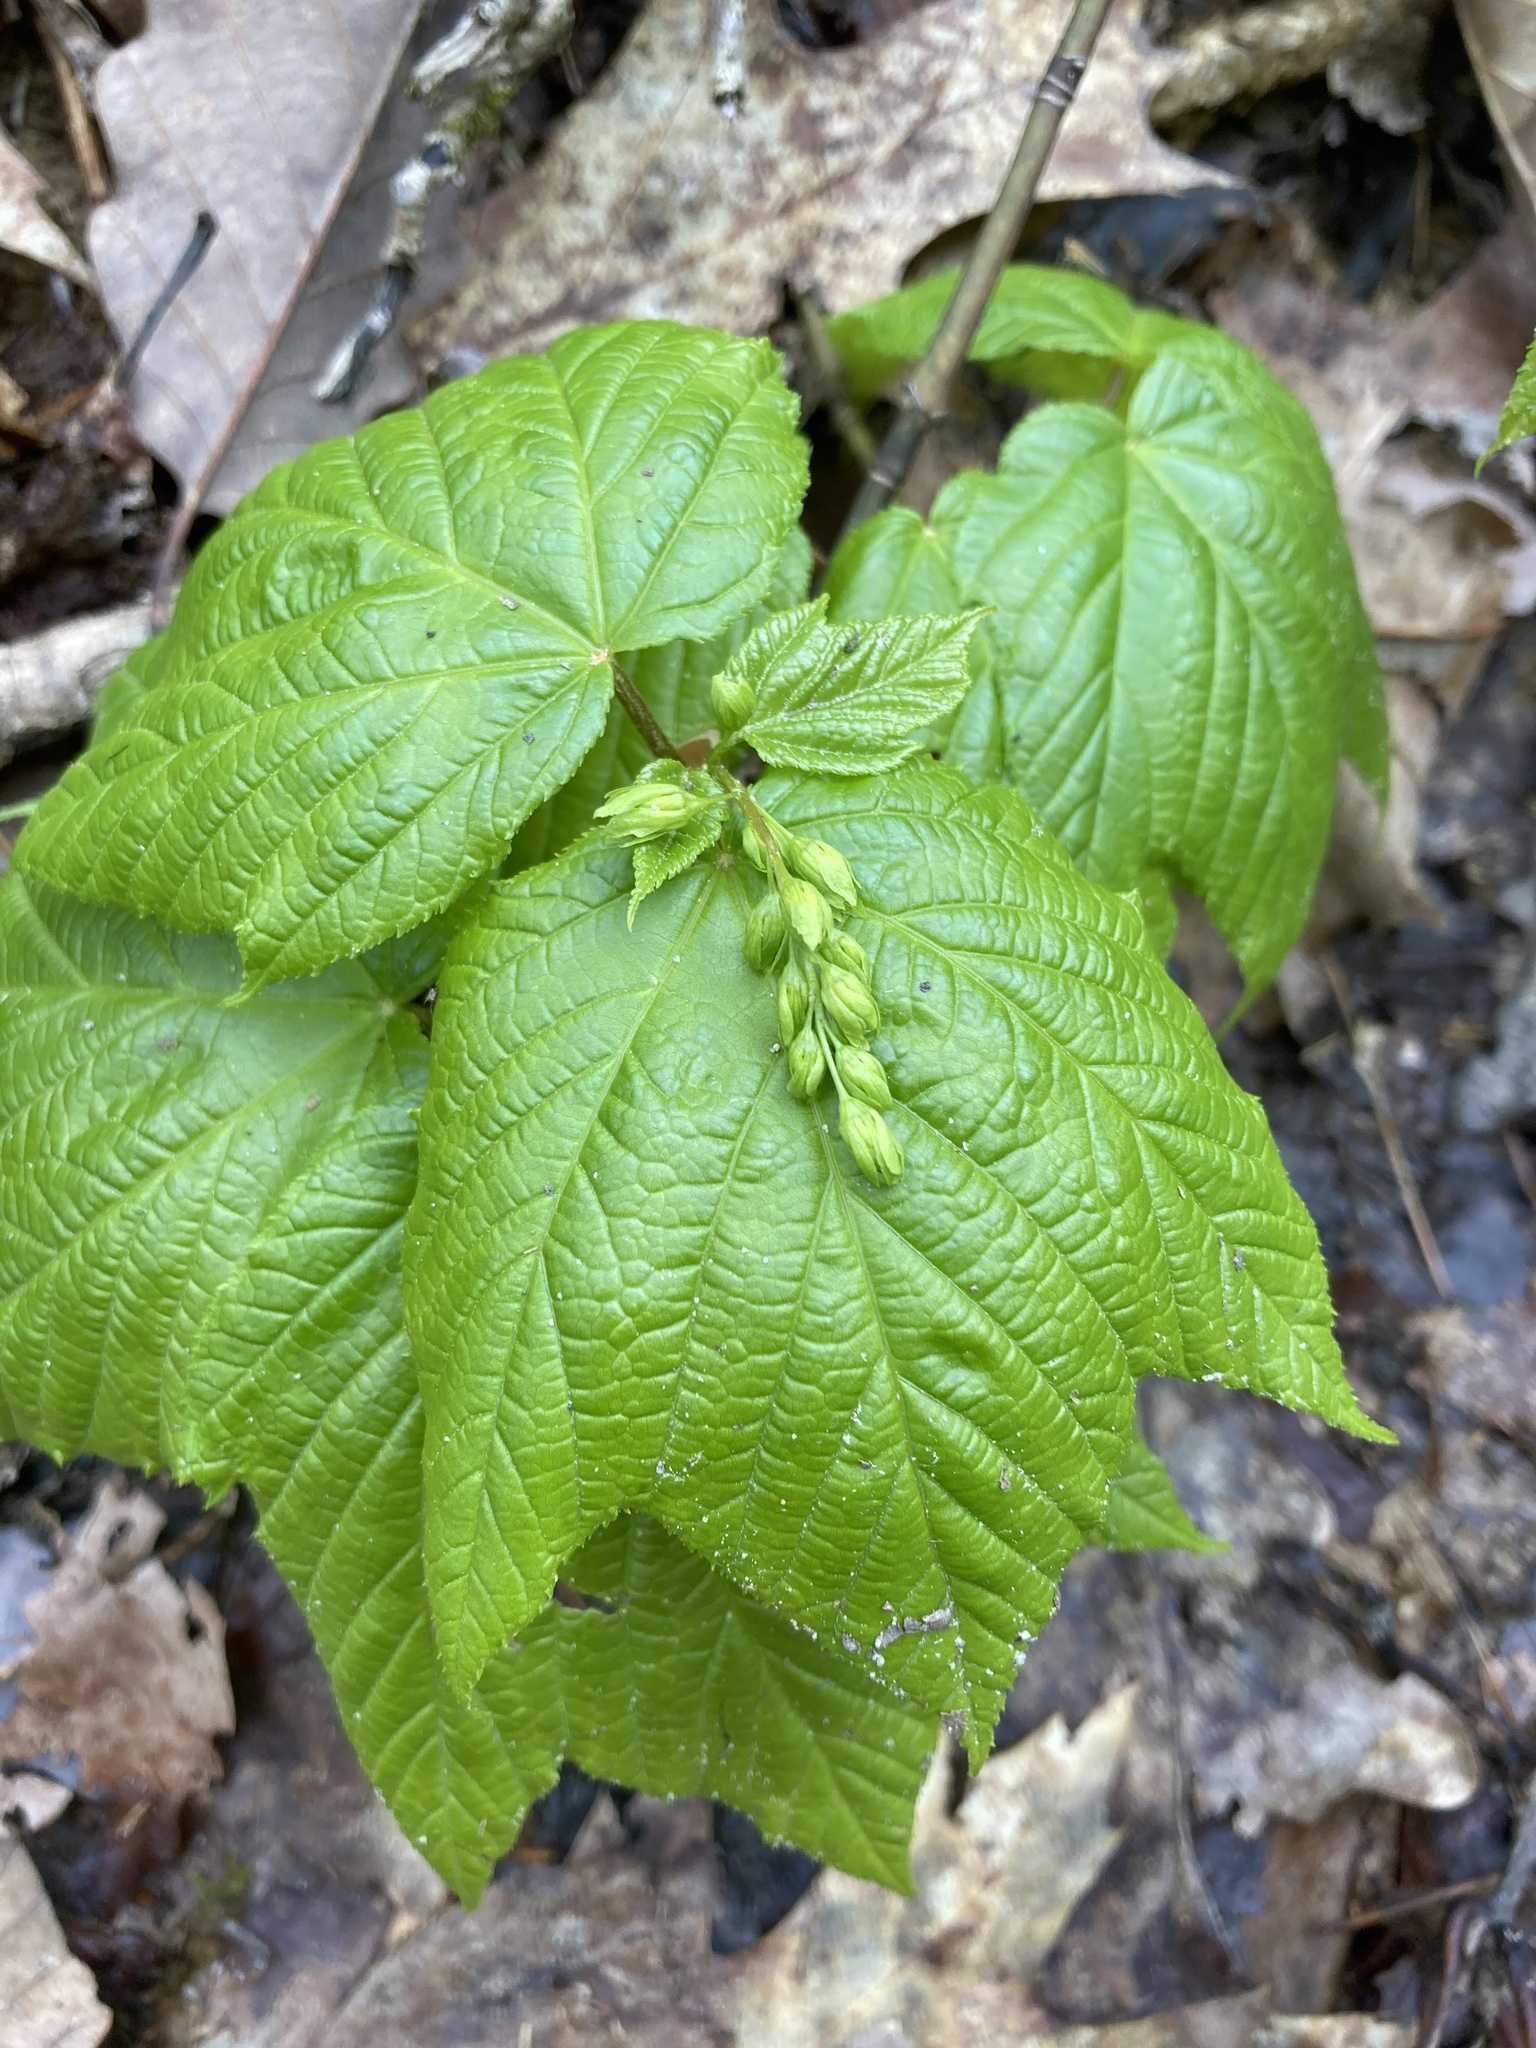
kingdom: Plantae
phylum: Tracheophyta
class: Magnoliopsida
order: Sapindales
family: Sapindaceae
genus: Acer
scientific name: Acer pensylvanicum
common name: Moosewood
